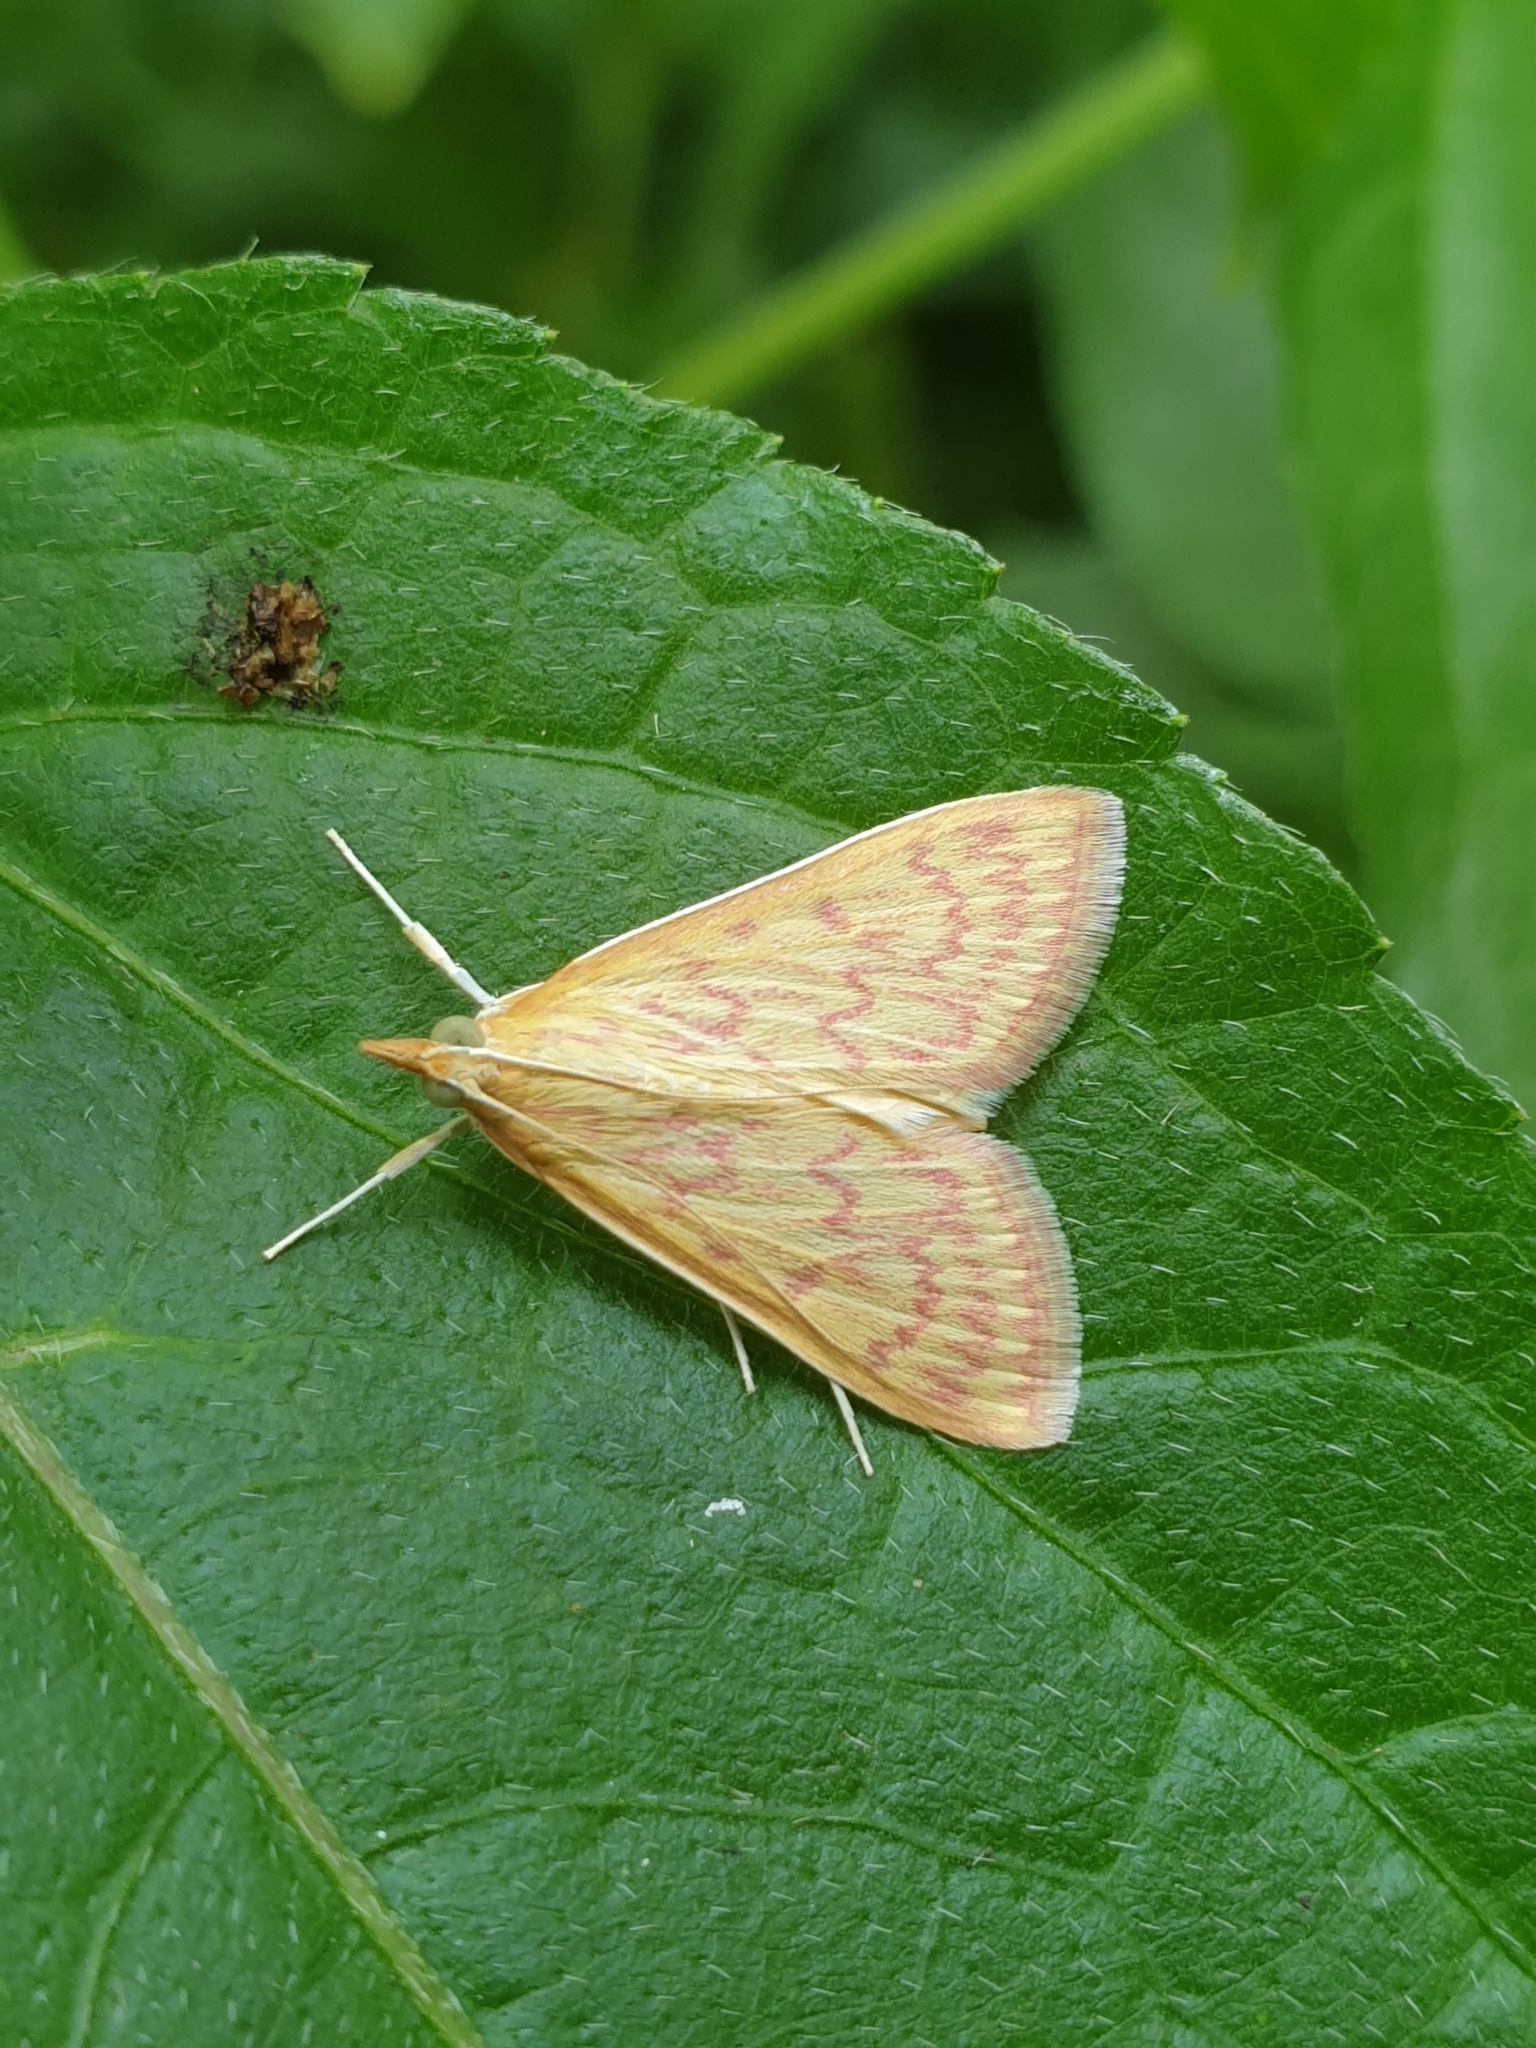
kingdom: Animalia
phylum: Arthropoda
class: Insecta
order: Lepidoptera
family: Crambidae
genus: Paliga
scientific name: Paliga damastesalis
